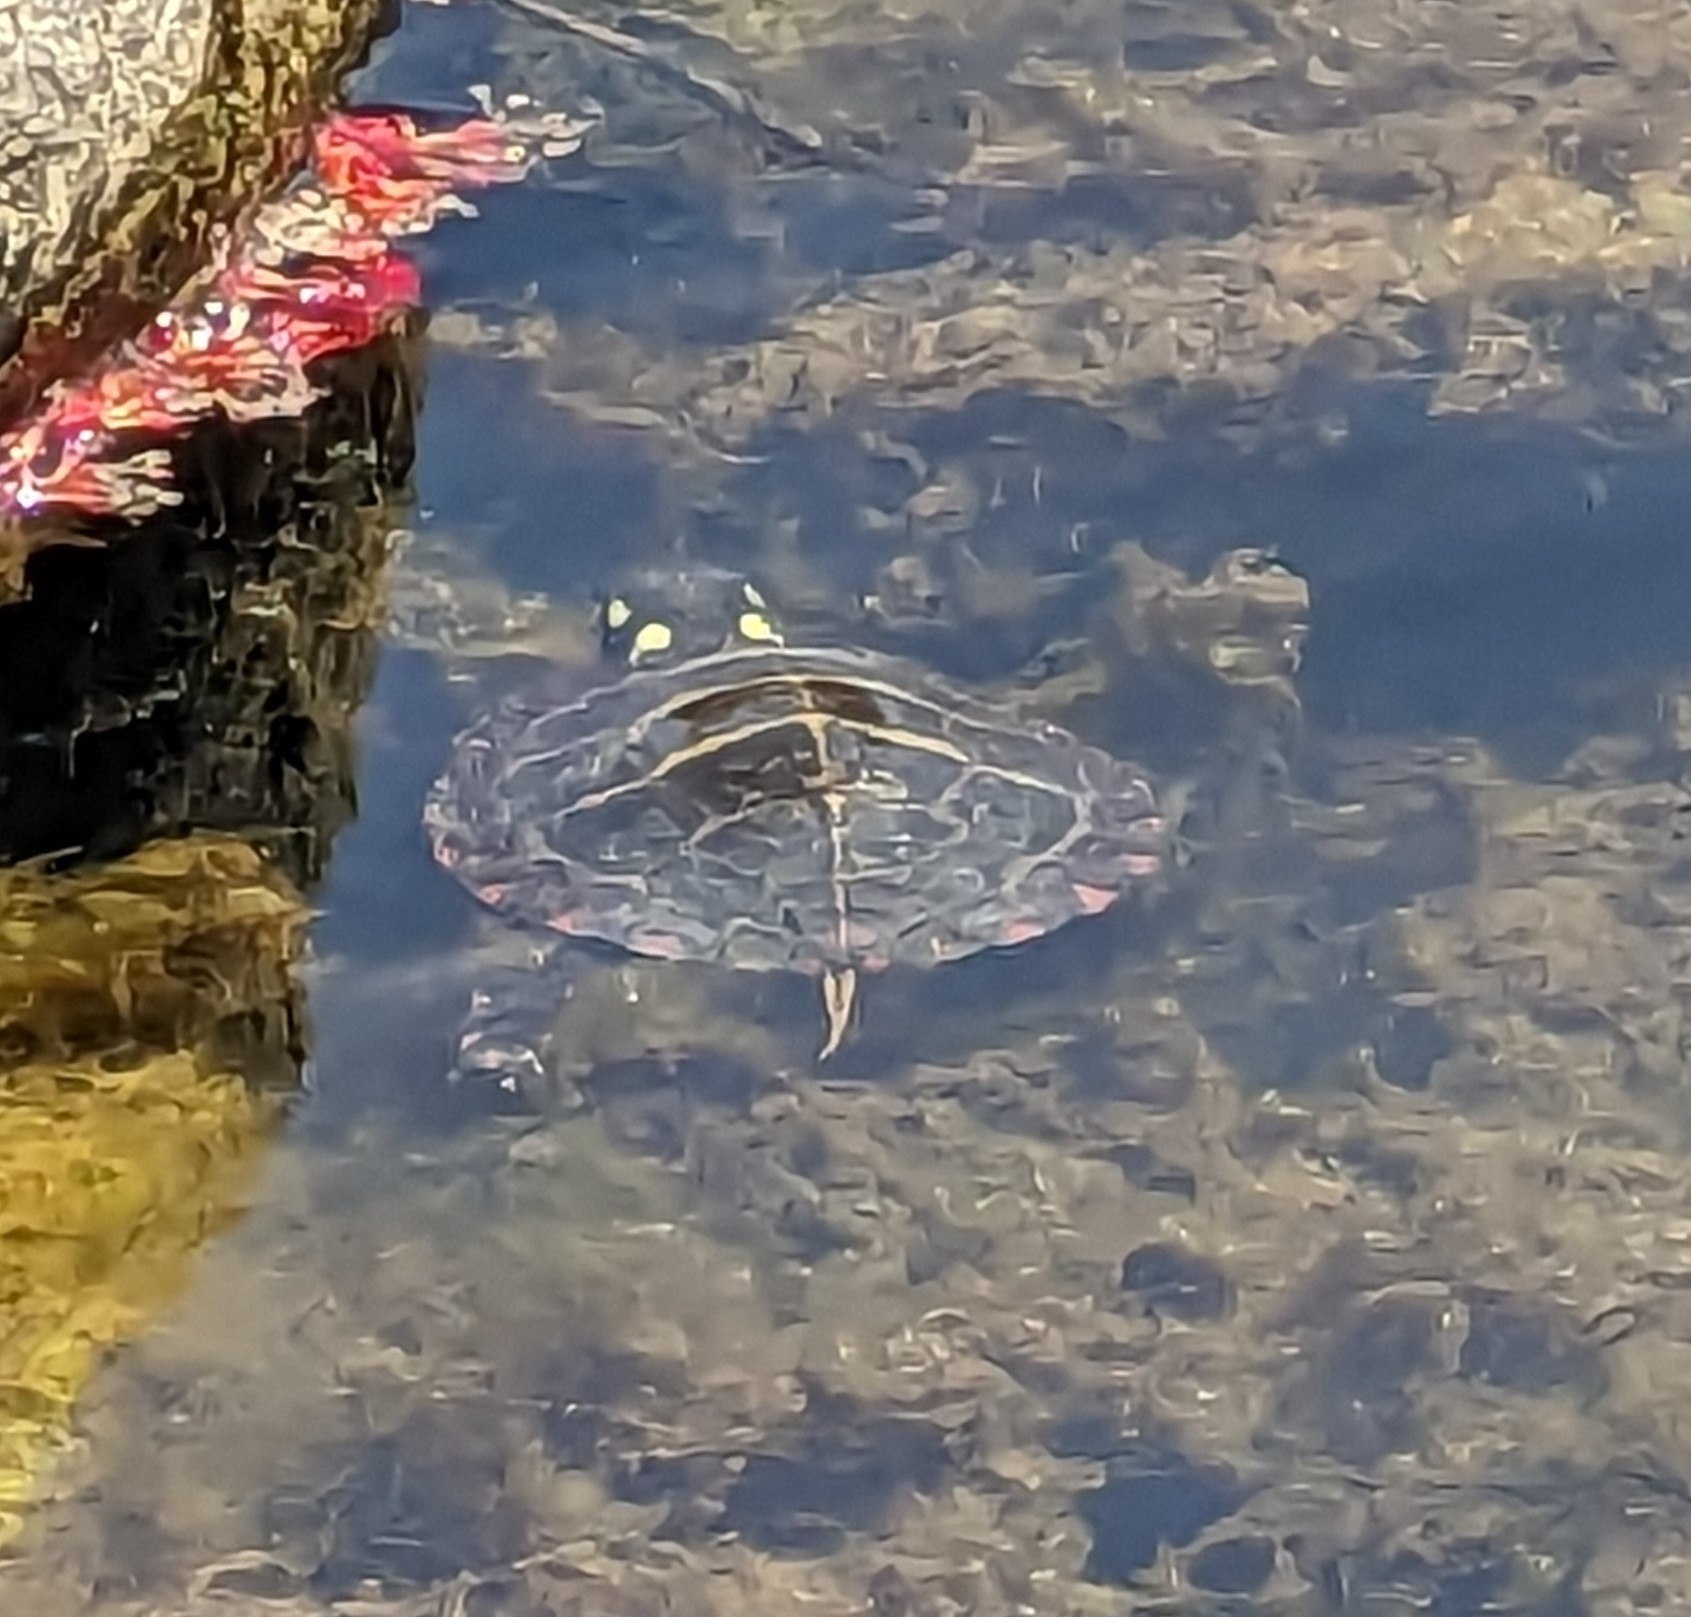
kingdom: Animalia
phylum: Chordata
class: Testudines
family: Emydidae
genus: Chrysemys
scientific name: Chrysemys picta
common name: Painted turtle
